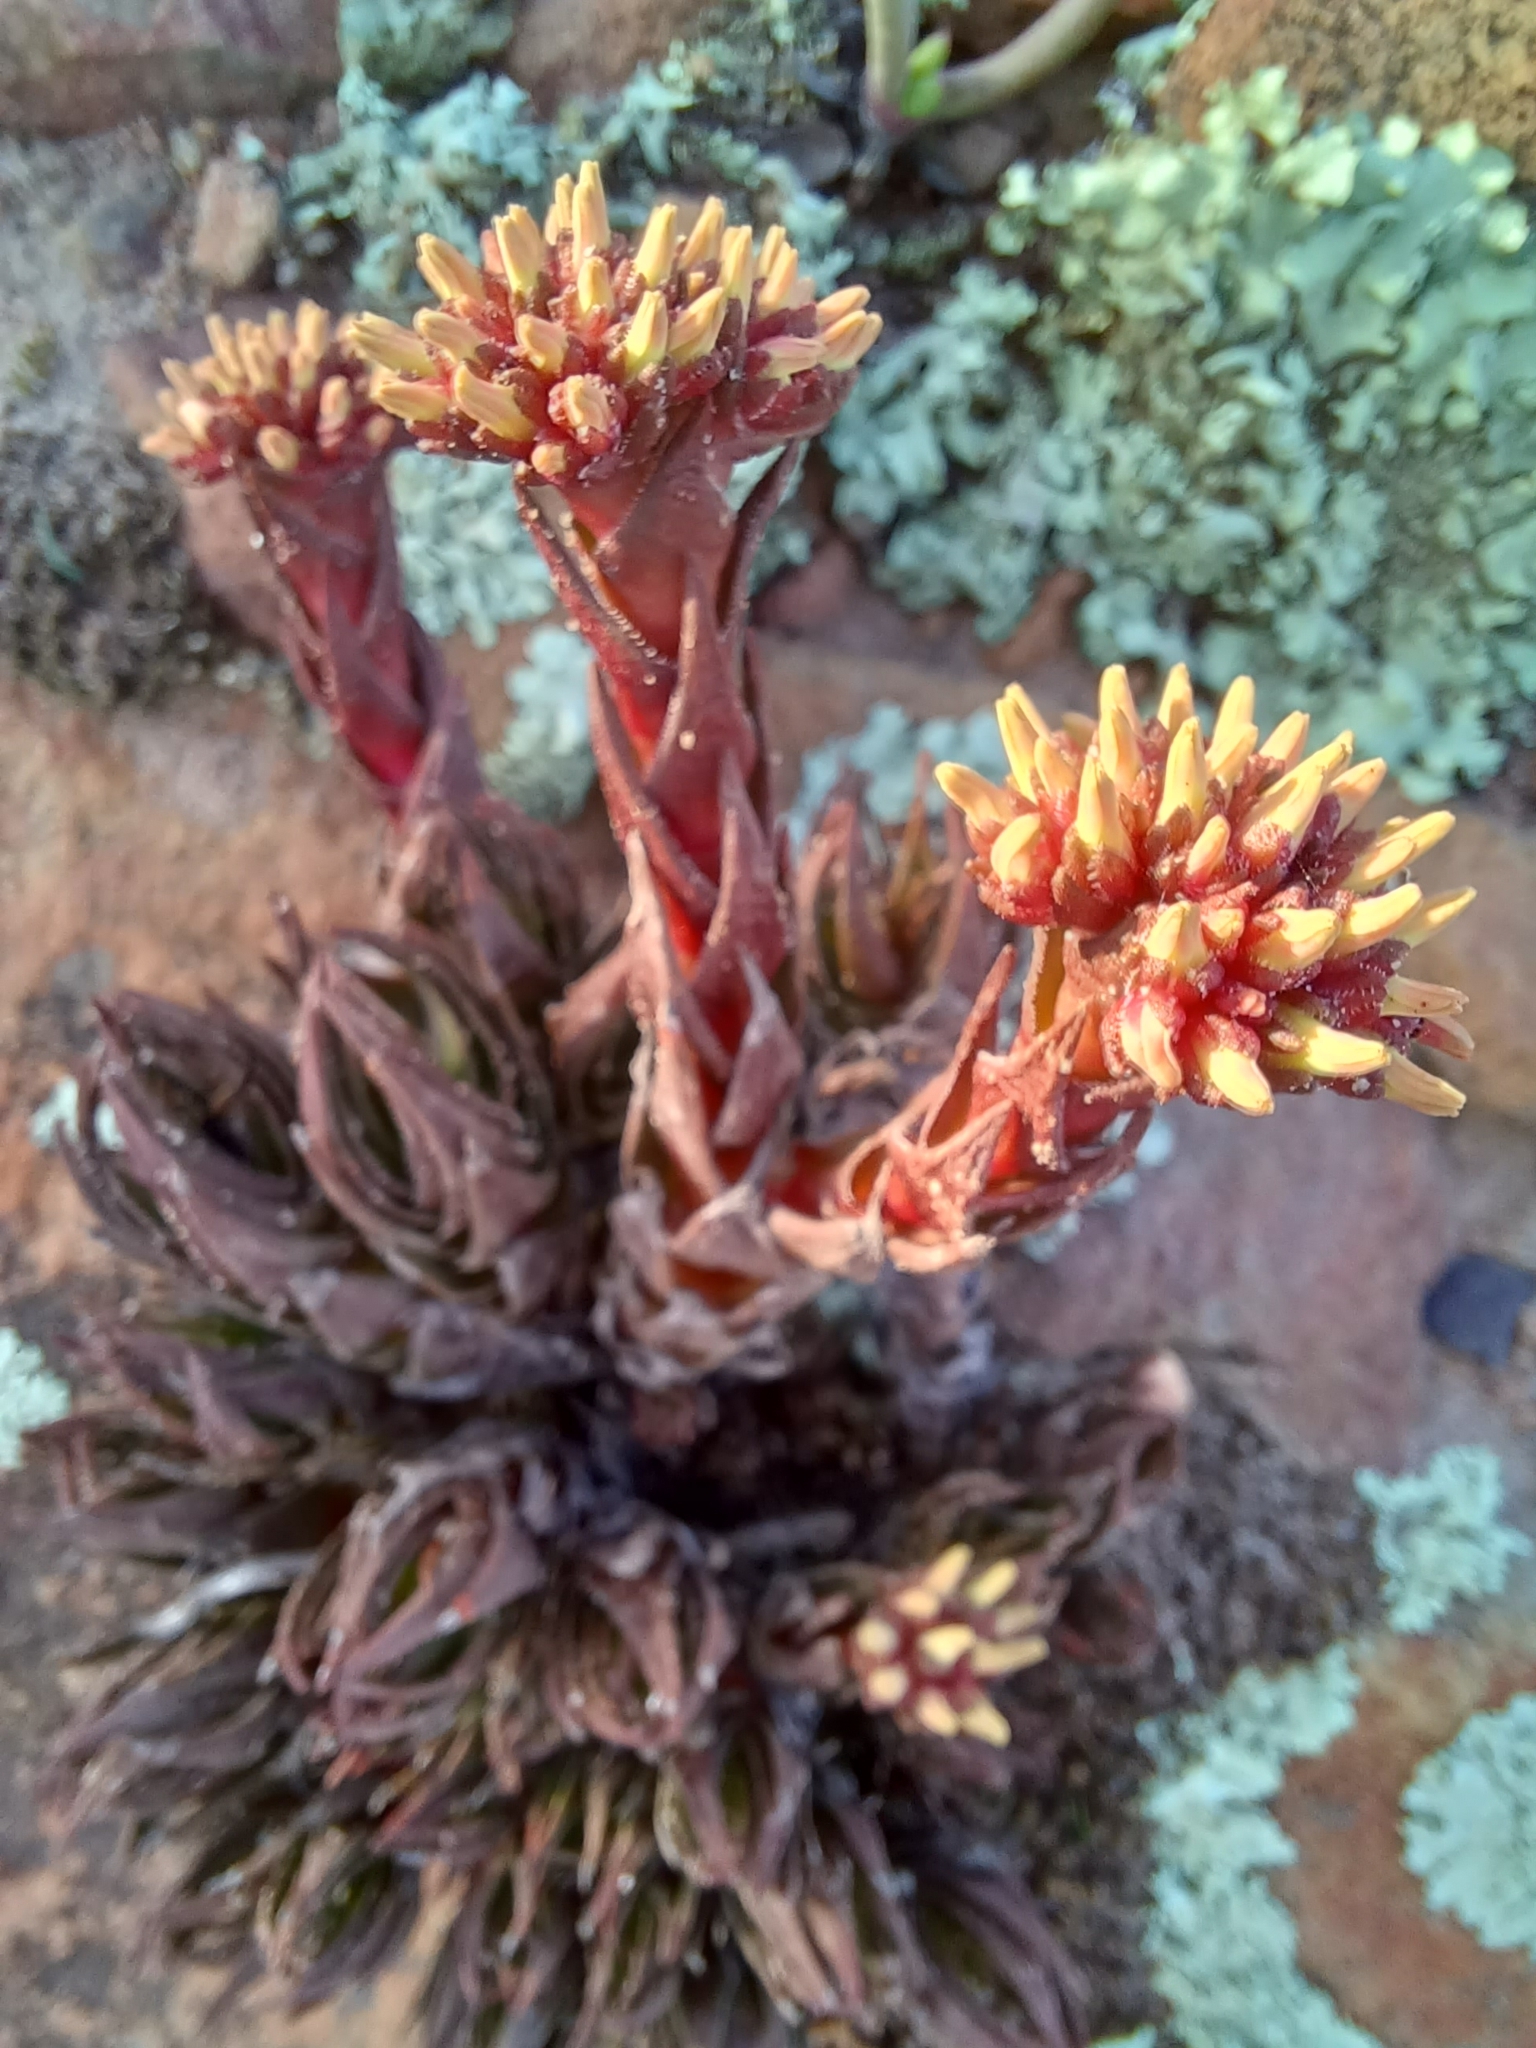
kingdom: Plantae
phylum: Tracheophyta
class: Magnoliopsida
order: Saxifragales
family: Crassulaceae
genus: Crassula
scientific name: Crassula alpestris
